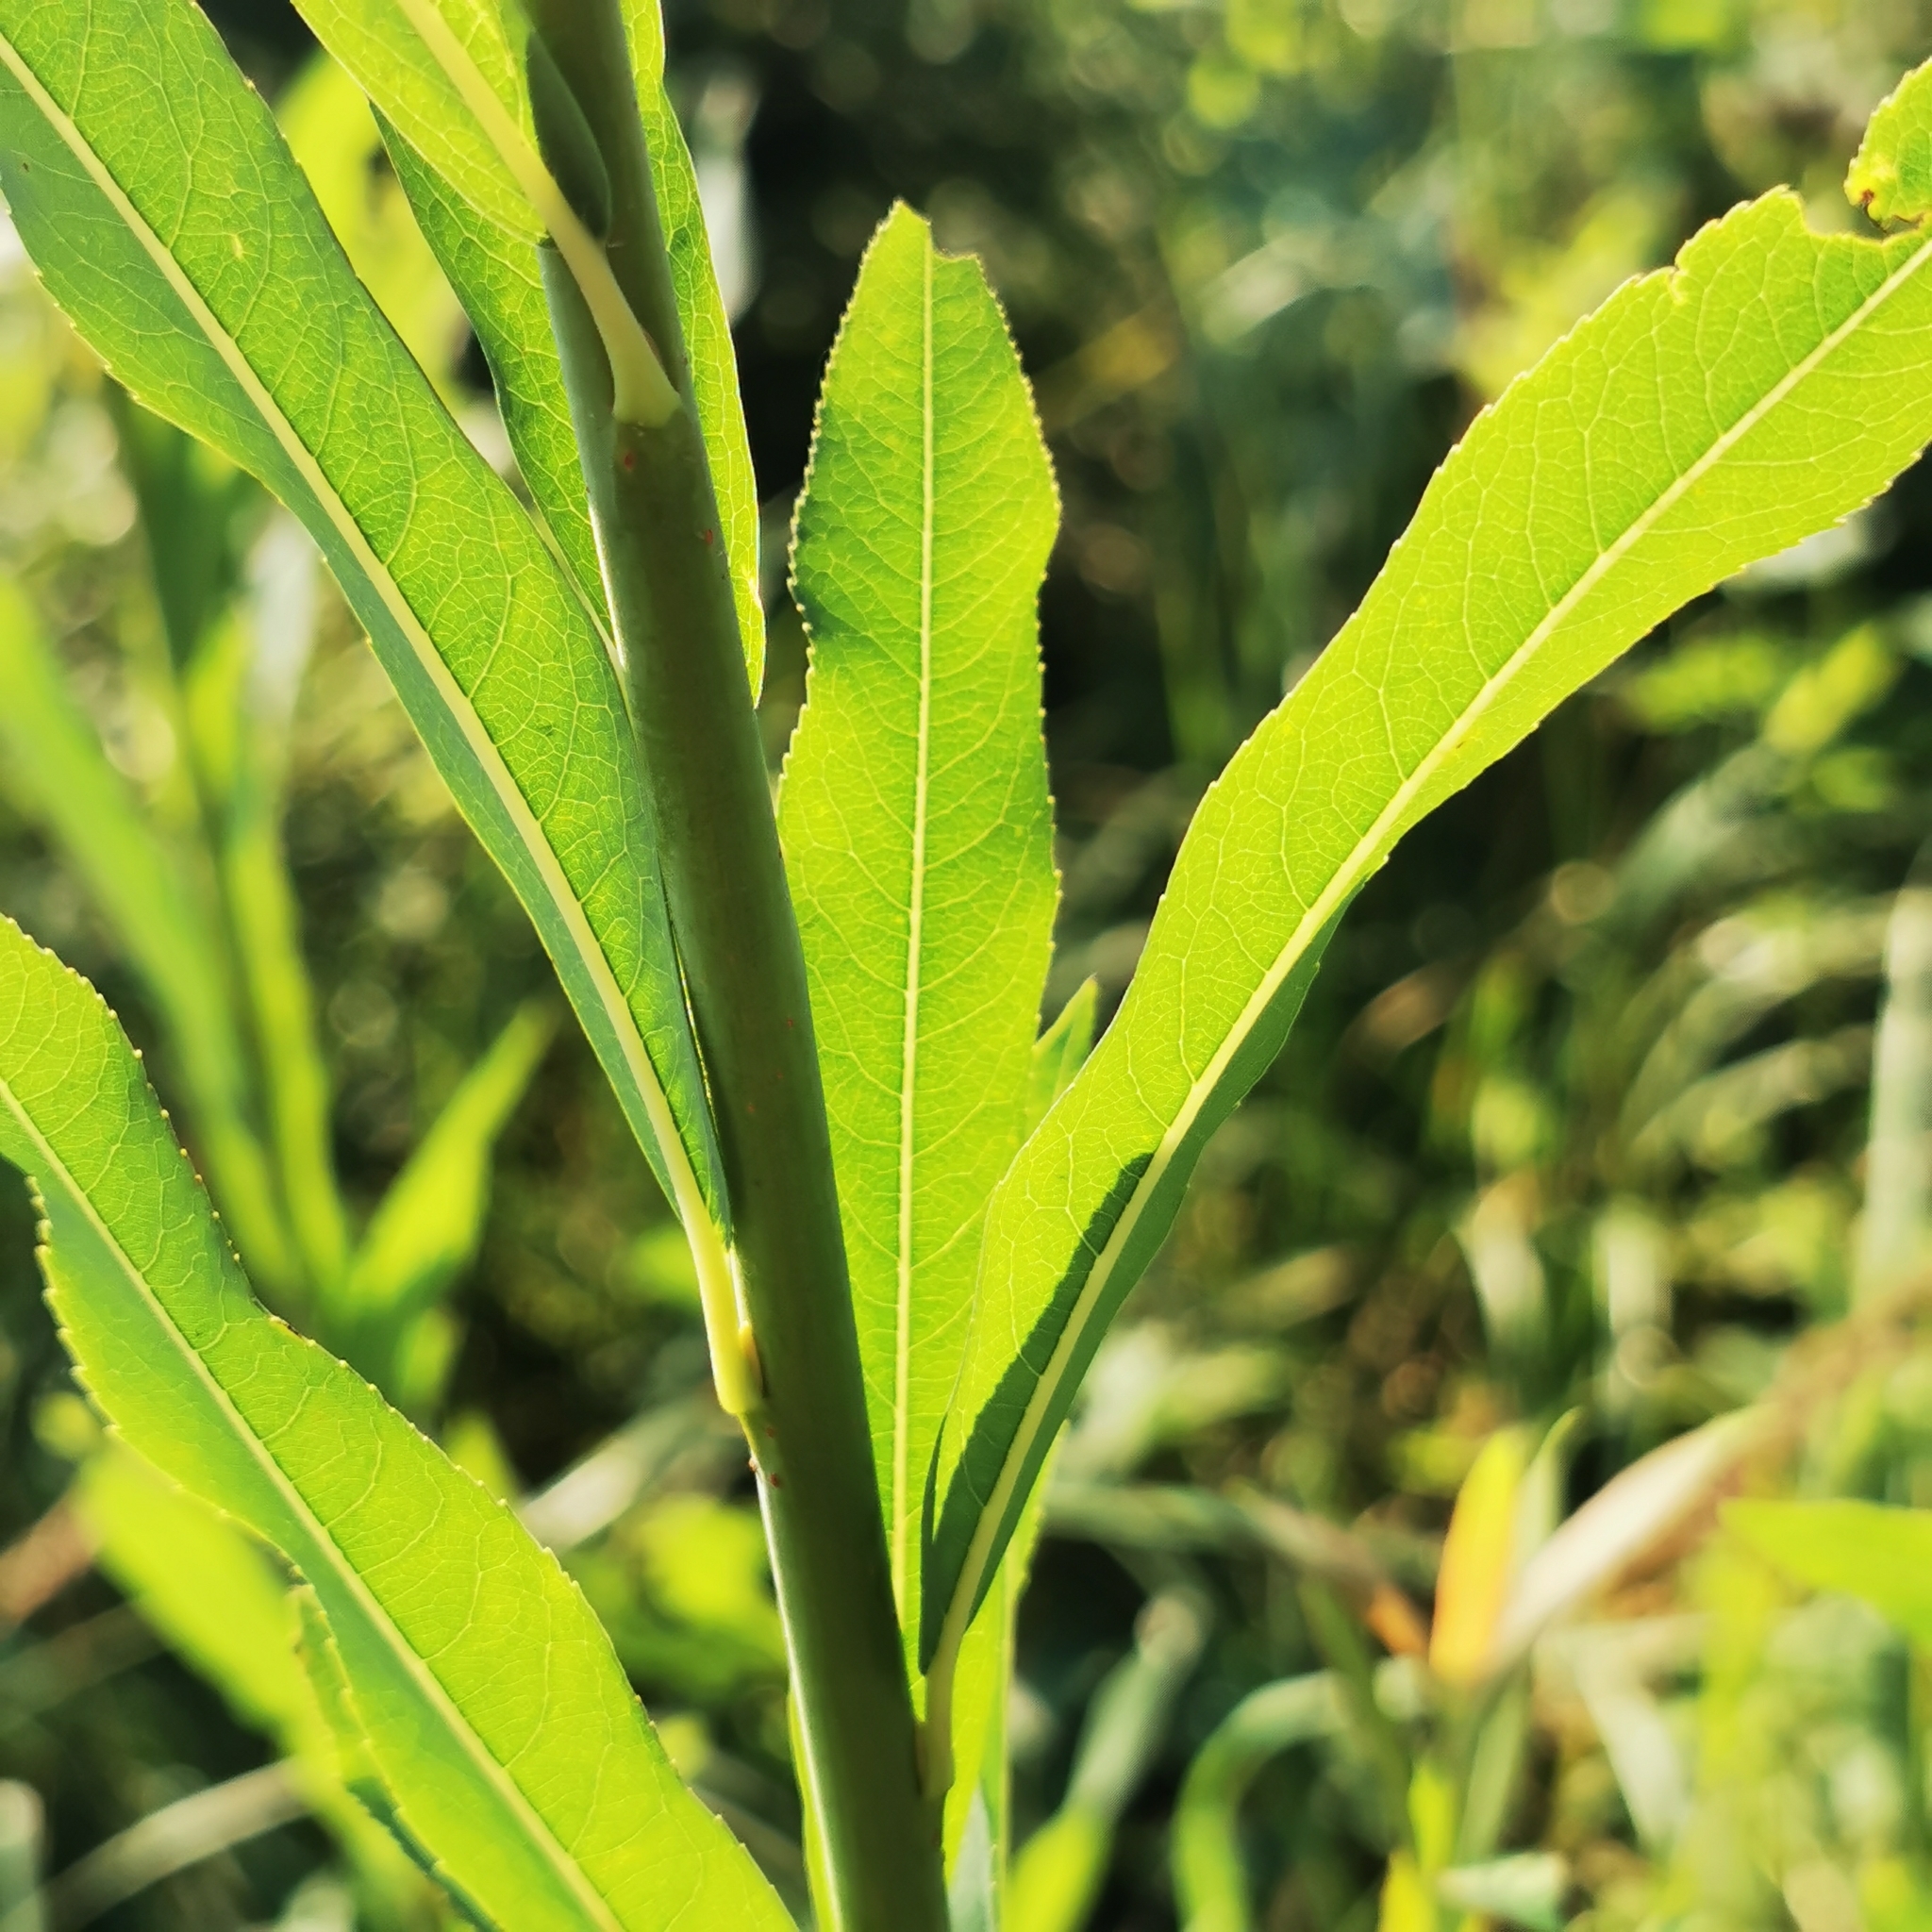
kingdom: Plantae
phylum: Tracheophyta
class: Magnoliopsida
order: Malpighiales
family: Salicaceae
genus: Salix
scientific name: Salix purpurea
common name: Purple willow
